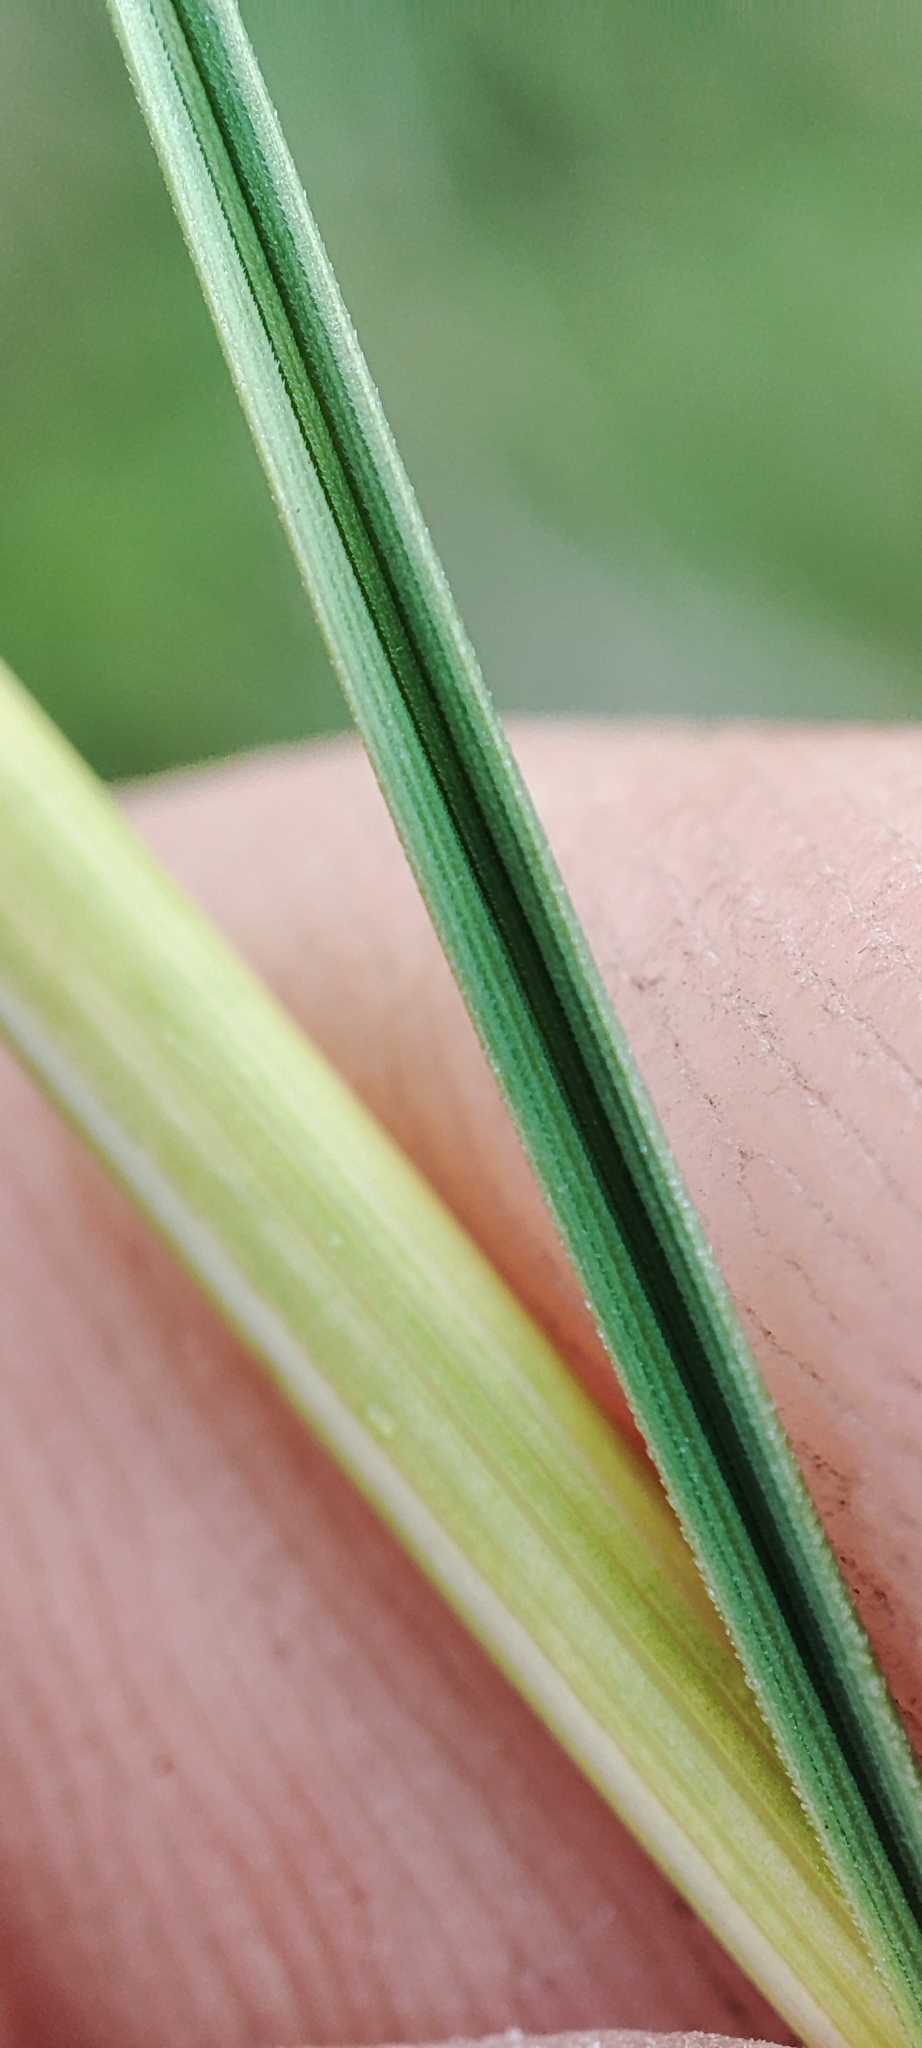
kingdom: Plantae
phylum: Tracheophyta
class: Liliopsida
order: Poales
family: Poaceae
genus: Stipa
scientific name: Stipa pennata
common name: European feather grass
